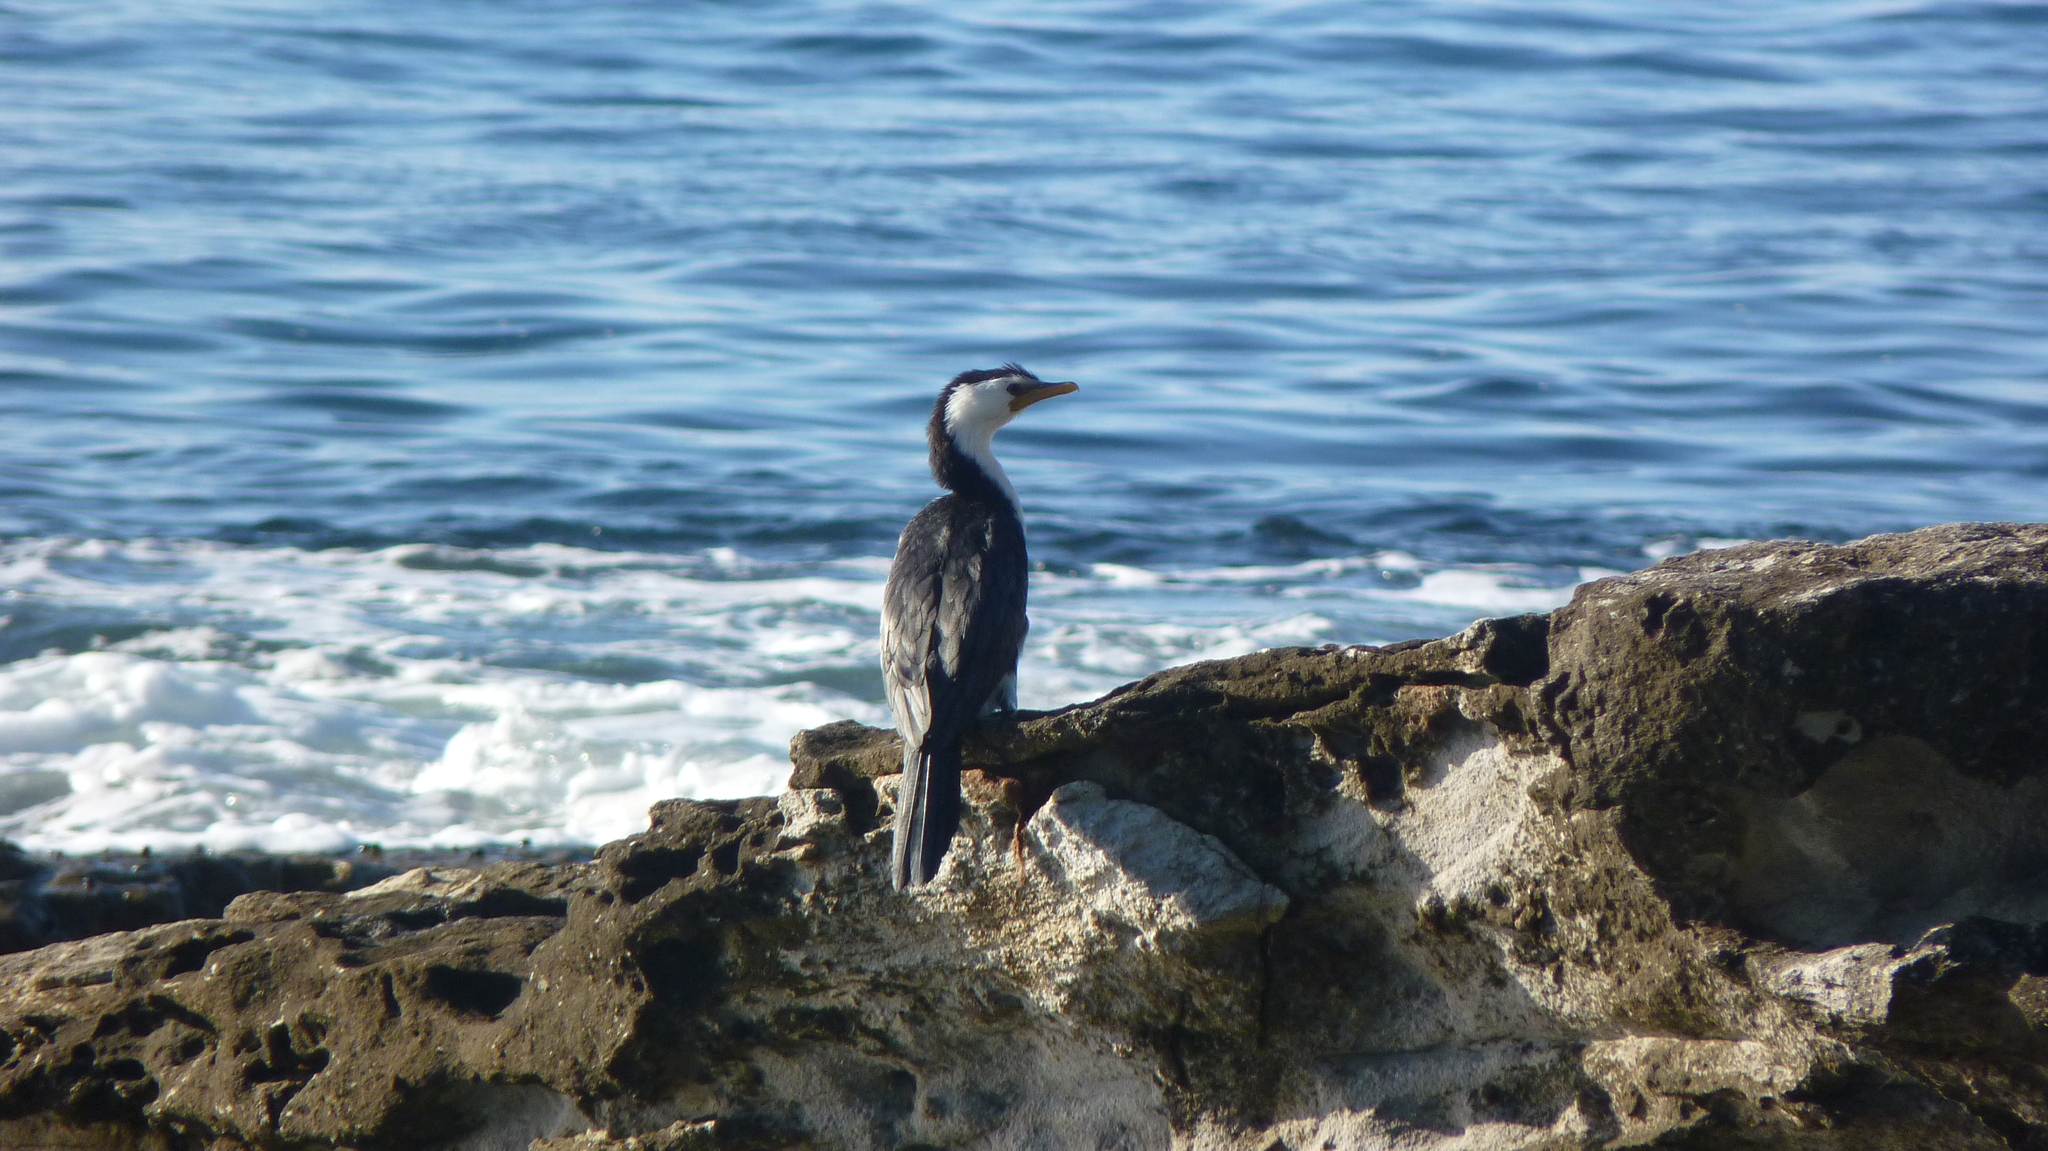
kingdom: Animalia
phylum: Chordata
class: Aves
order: Suliformes
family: Phalacrocoracidae
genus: Microcarbo
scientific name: Microcarbo melanoleucos
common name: Little pied cormorant
